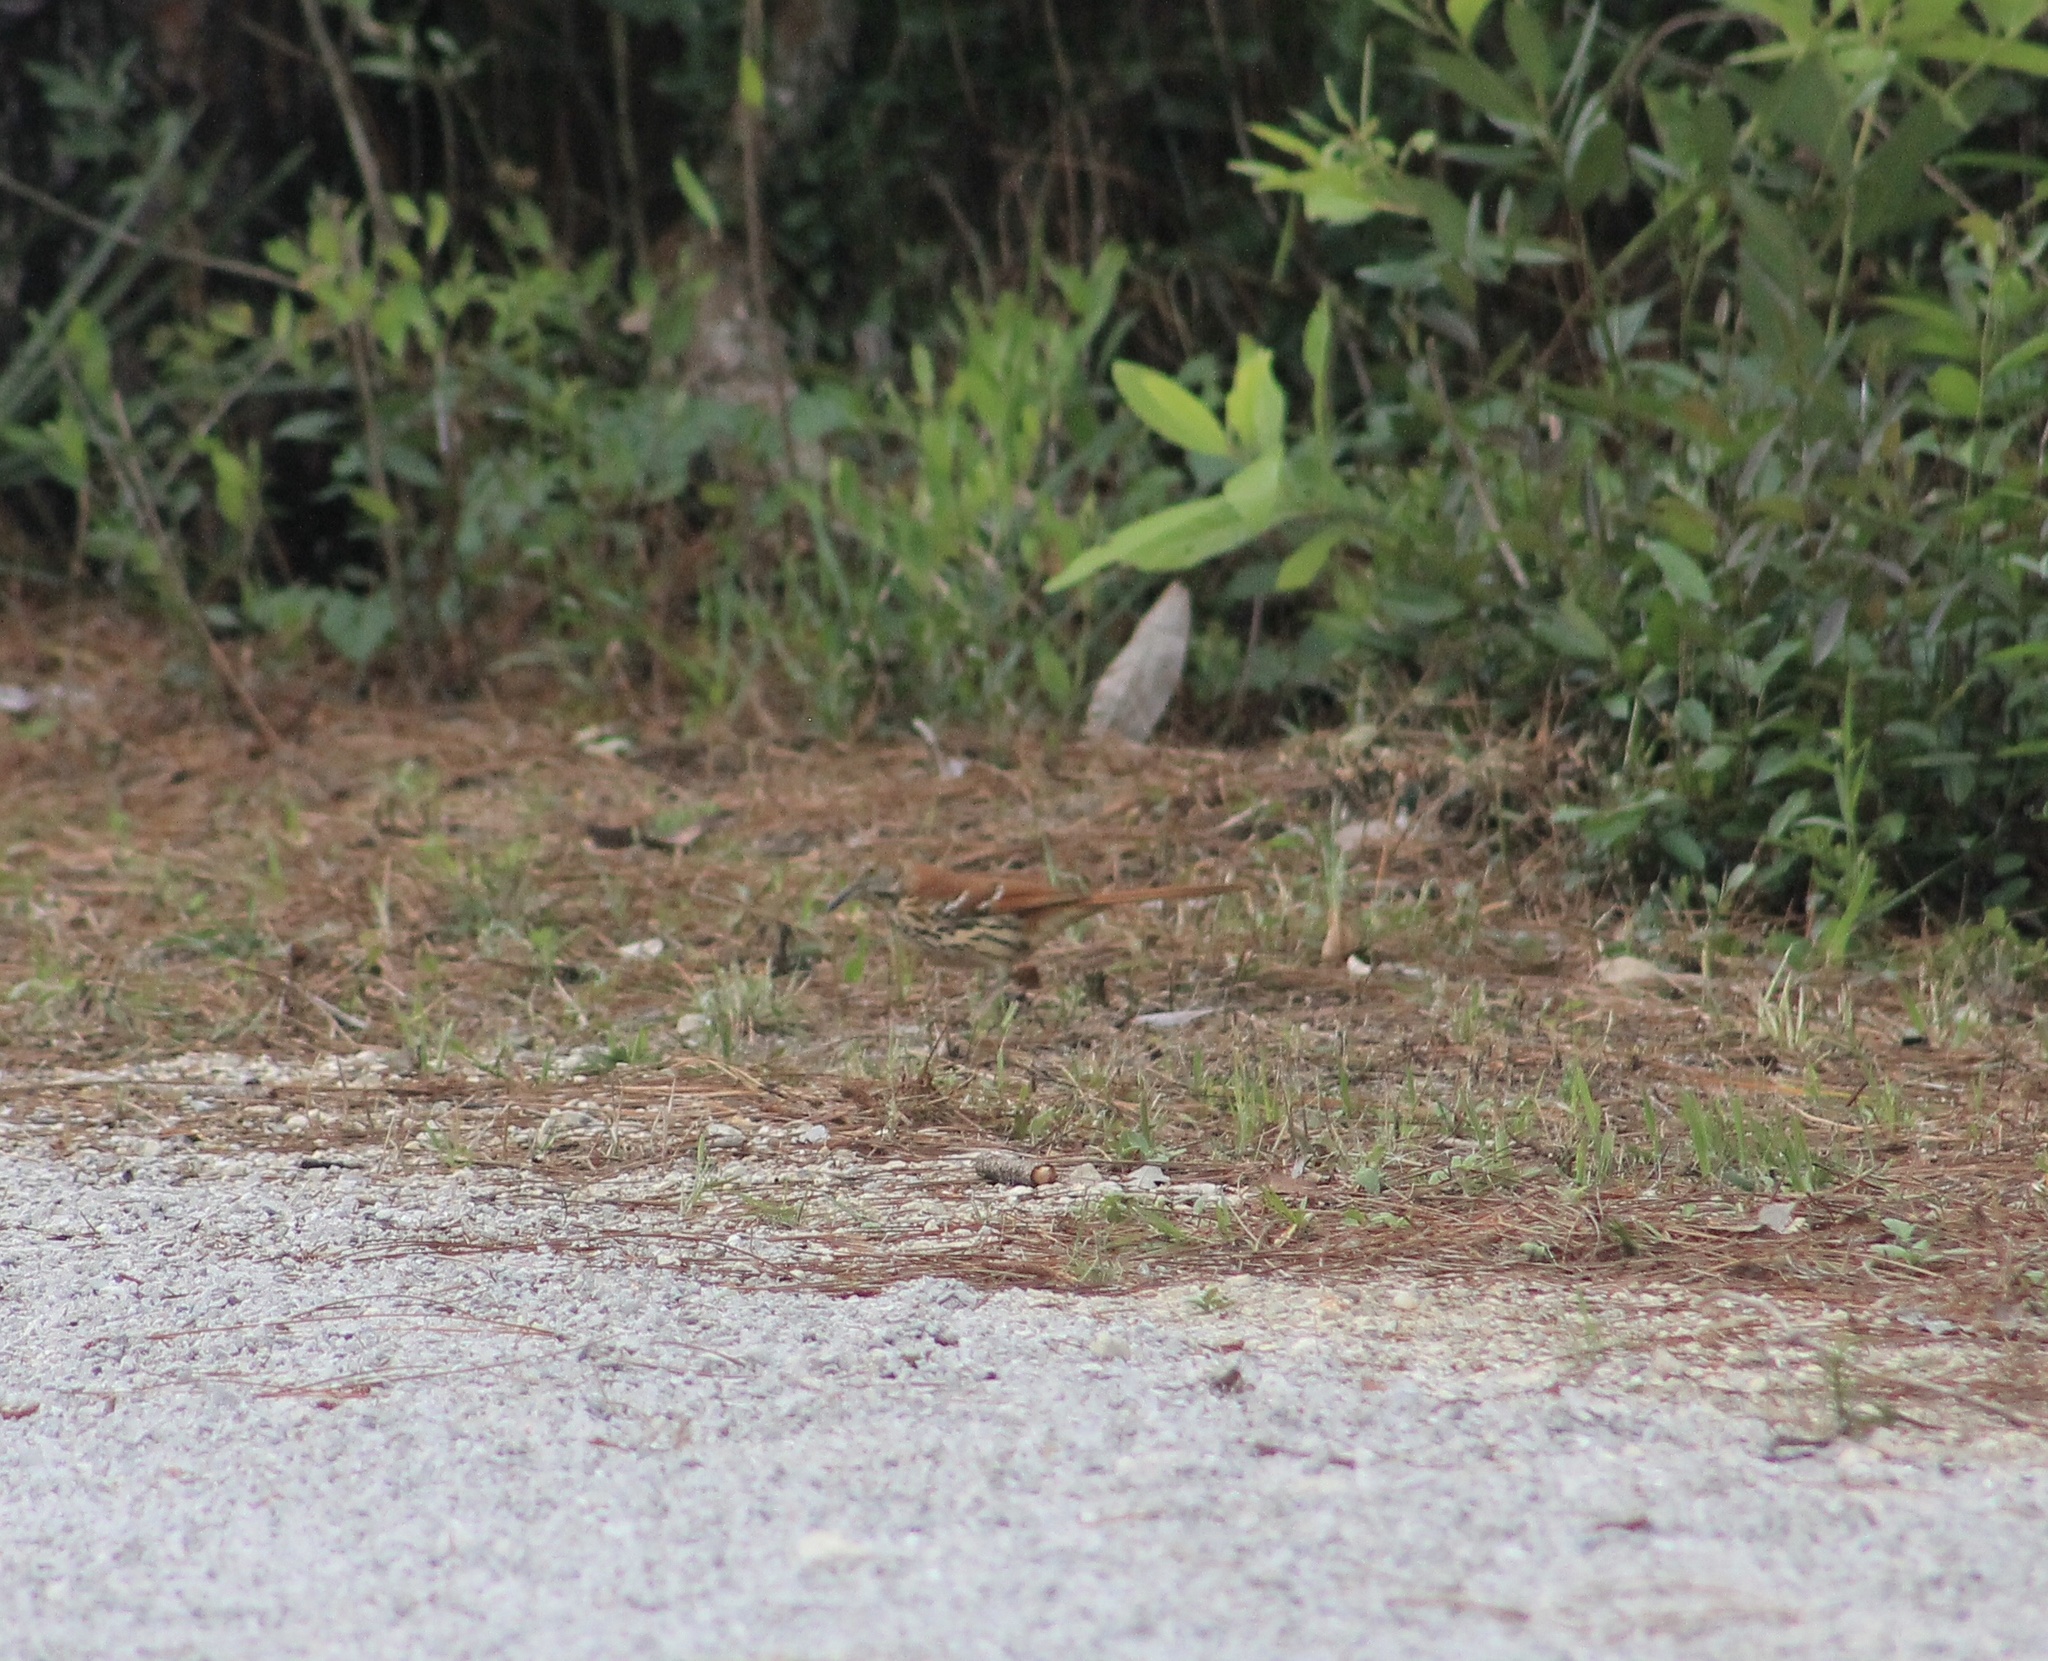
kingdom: Animalia
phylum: Chordata
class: Aves
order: Passeriformes
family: Mimidae
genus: Toxostoma
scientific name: Toxostoma rufum
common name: Brown thrasher
